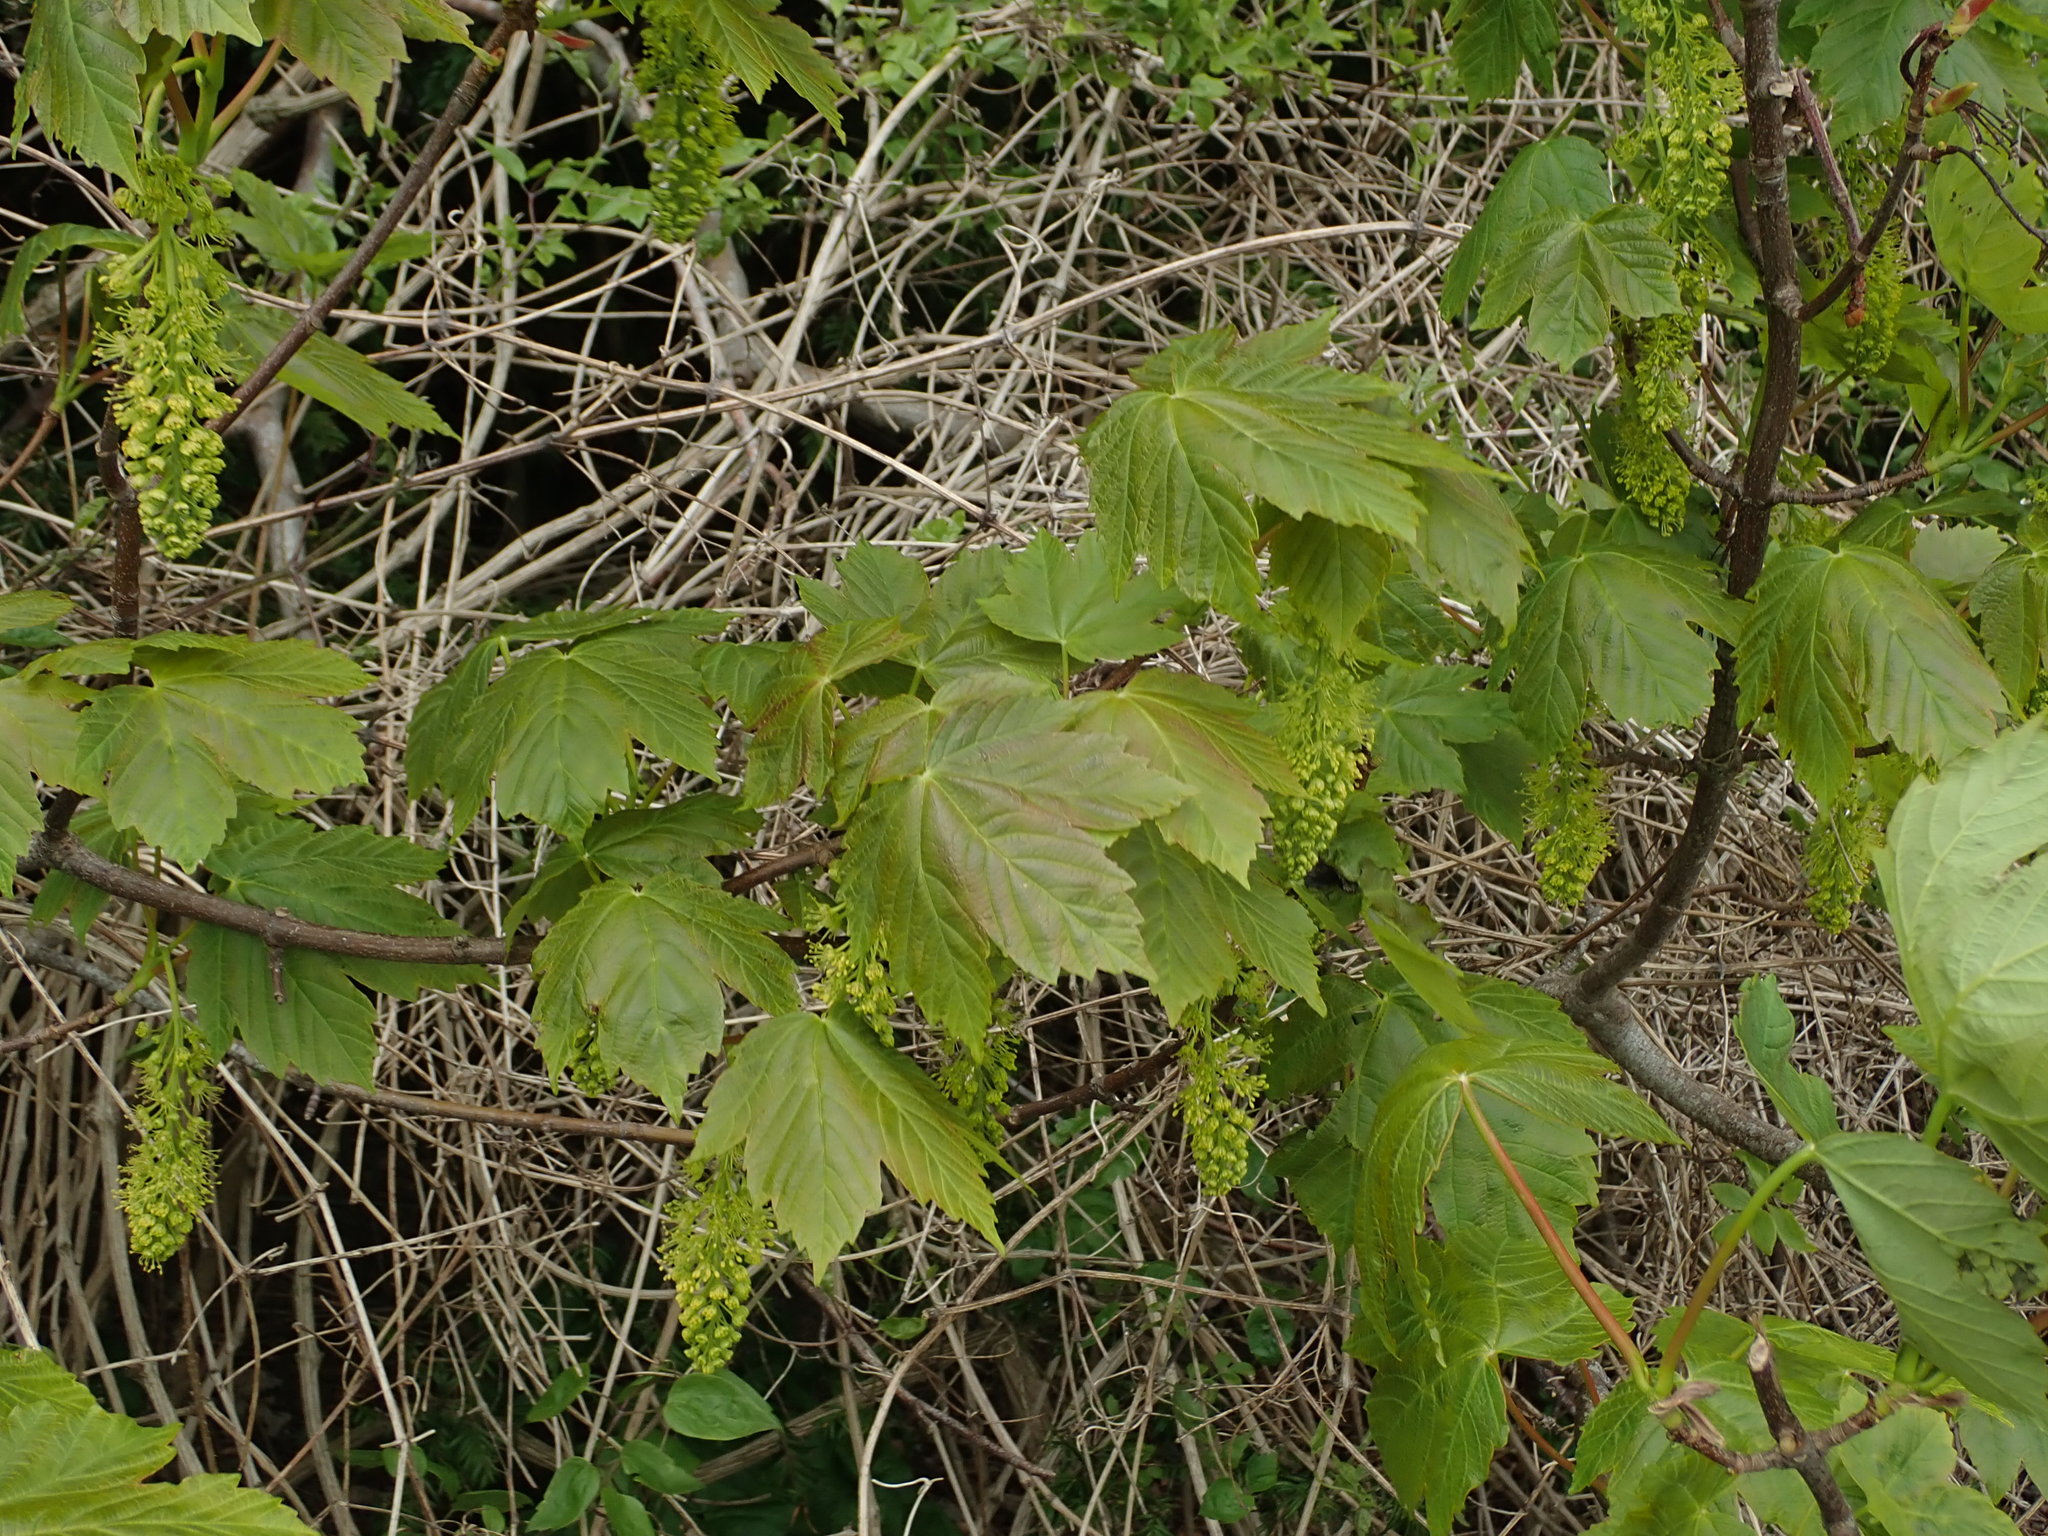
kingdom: Plantae
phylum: Tracheophyta
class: Magnoliopsida
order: Sapindales
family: Sapindaceae
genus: Acer
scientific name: Acer pseudoplatanus
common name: Sycamore
